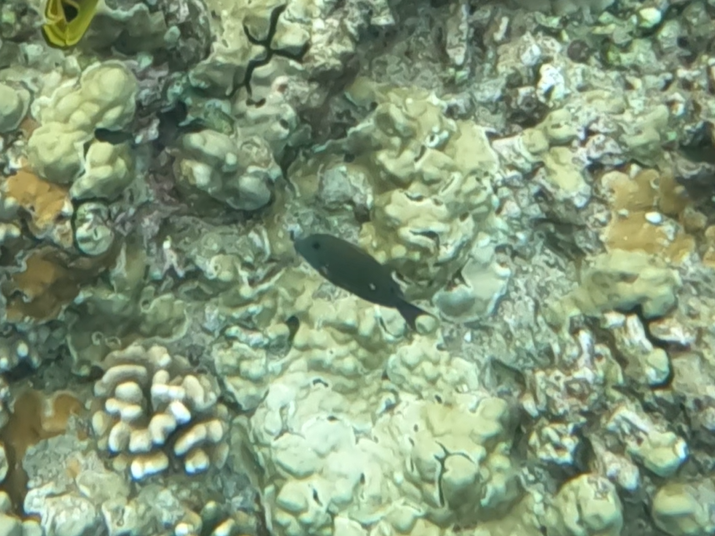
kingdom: Animalia
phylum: Chordata
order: Perciformes
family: Acanthuridae
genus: Acanthurus
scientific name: Acanthurus nigrofuscus
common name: Blackspot surgeonfish
